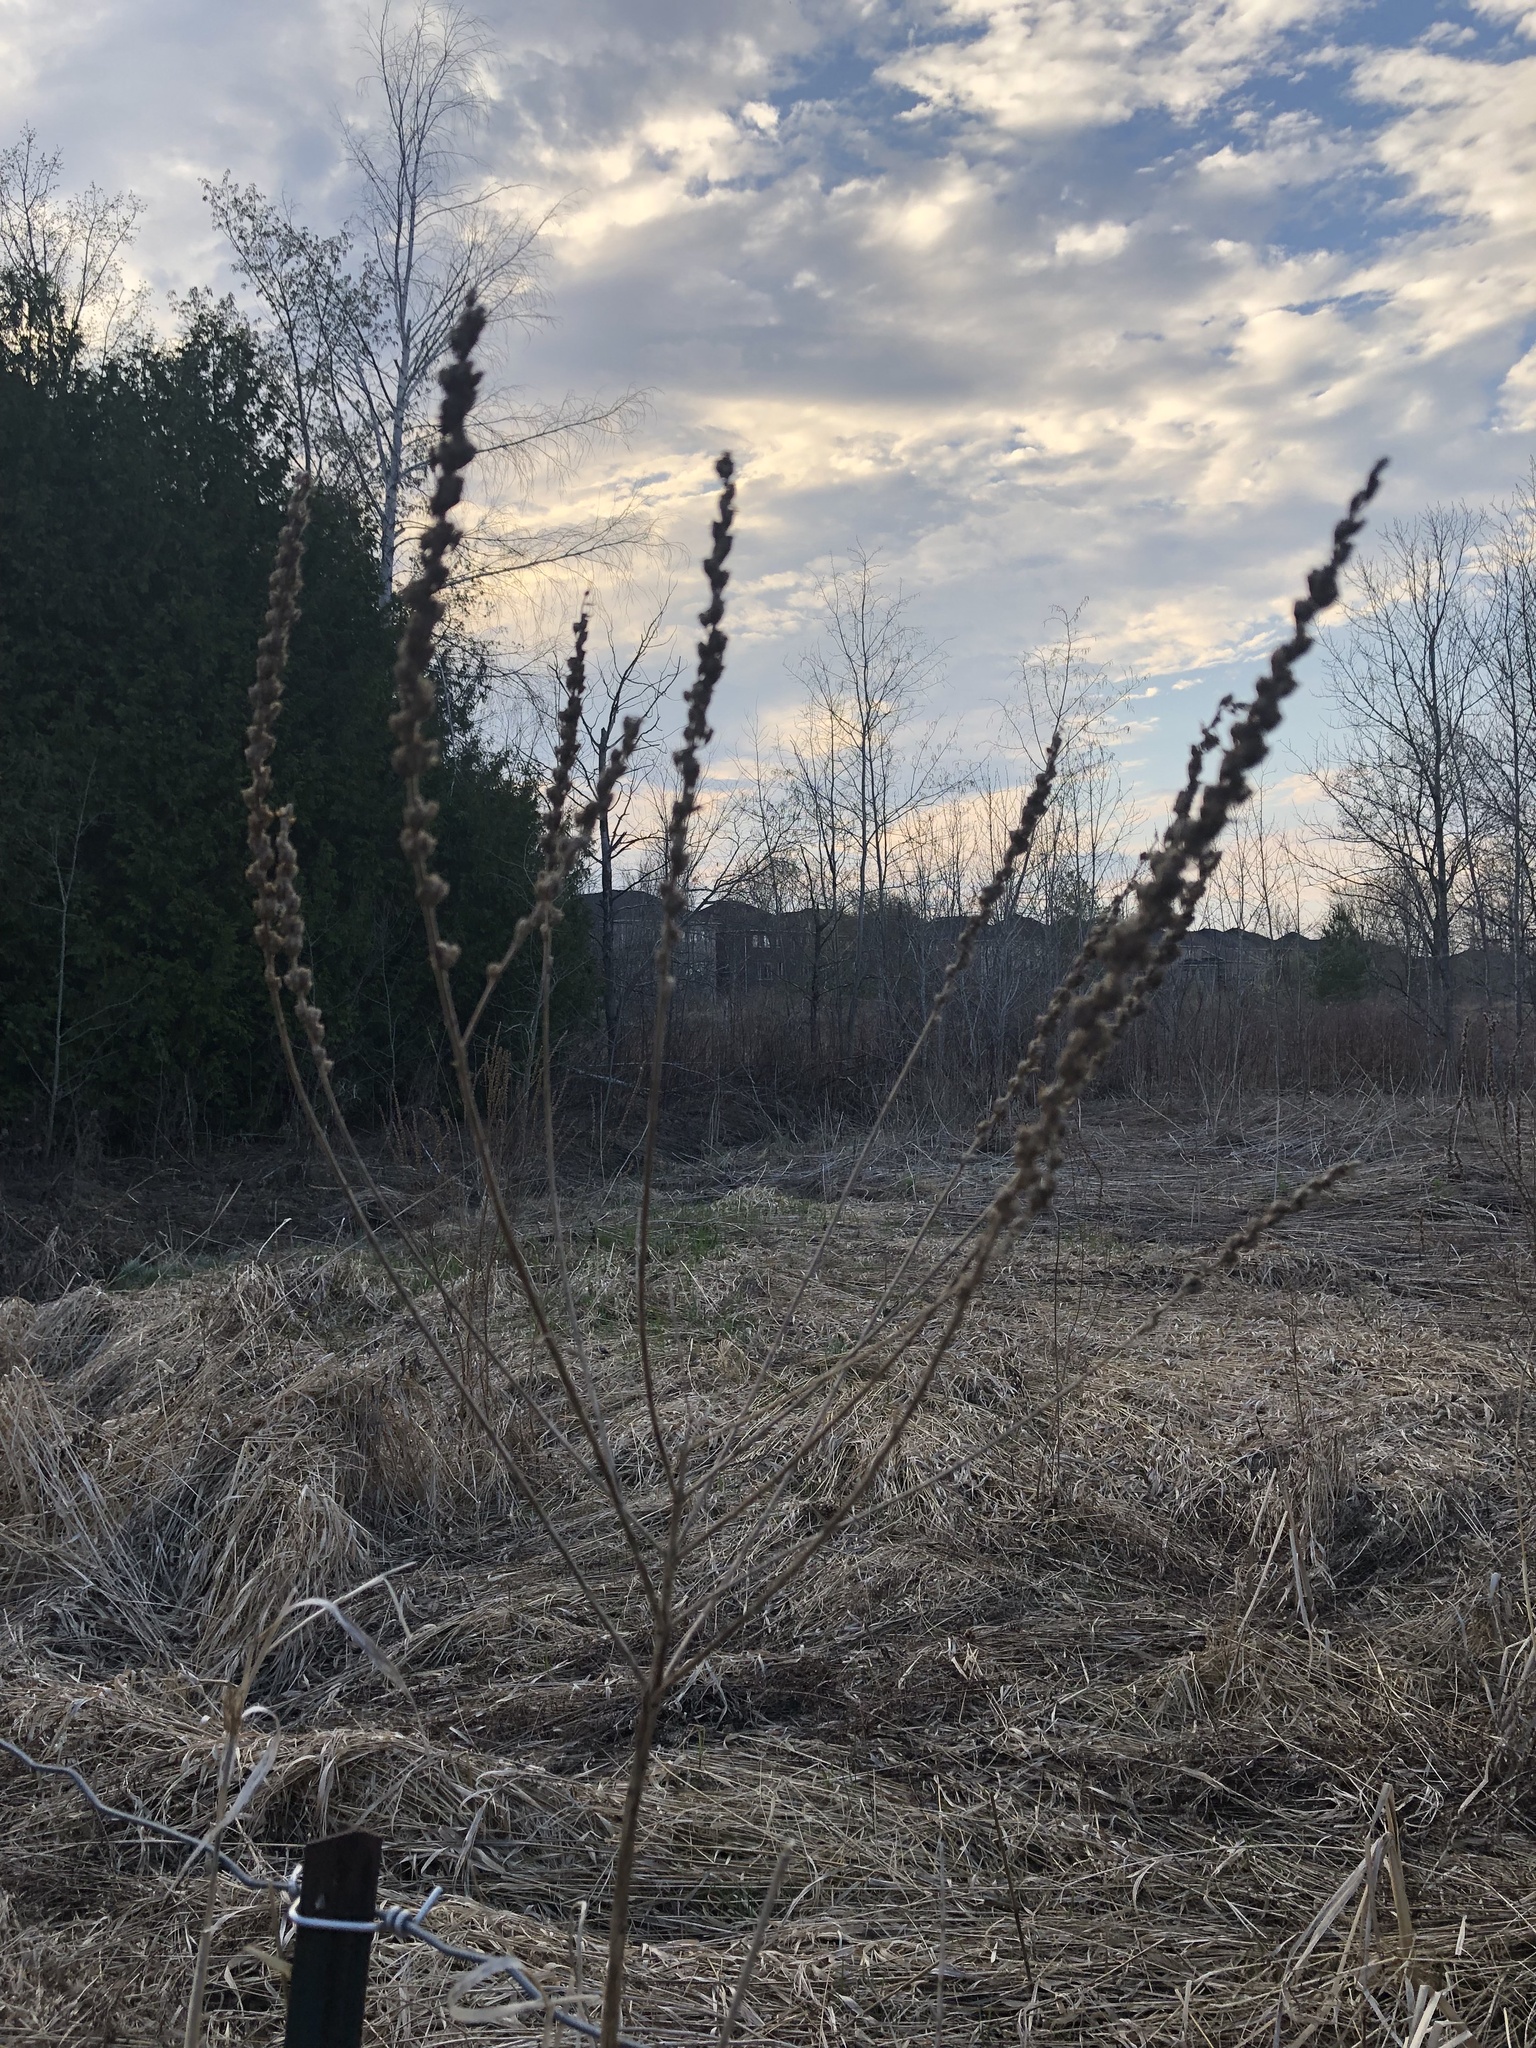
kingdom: Plantae
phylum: Tracheophyta
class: Magnoliopsida
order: Myrtales
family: Lythraceae
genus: Lythrum
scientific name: Lythrum salicaria
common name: Purple loosestrife
